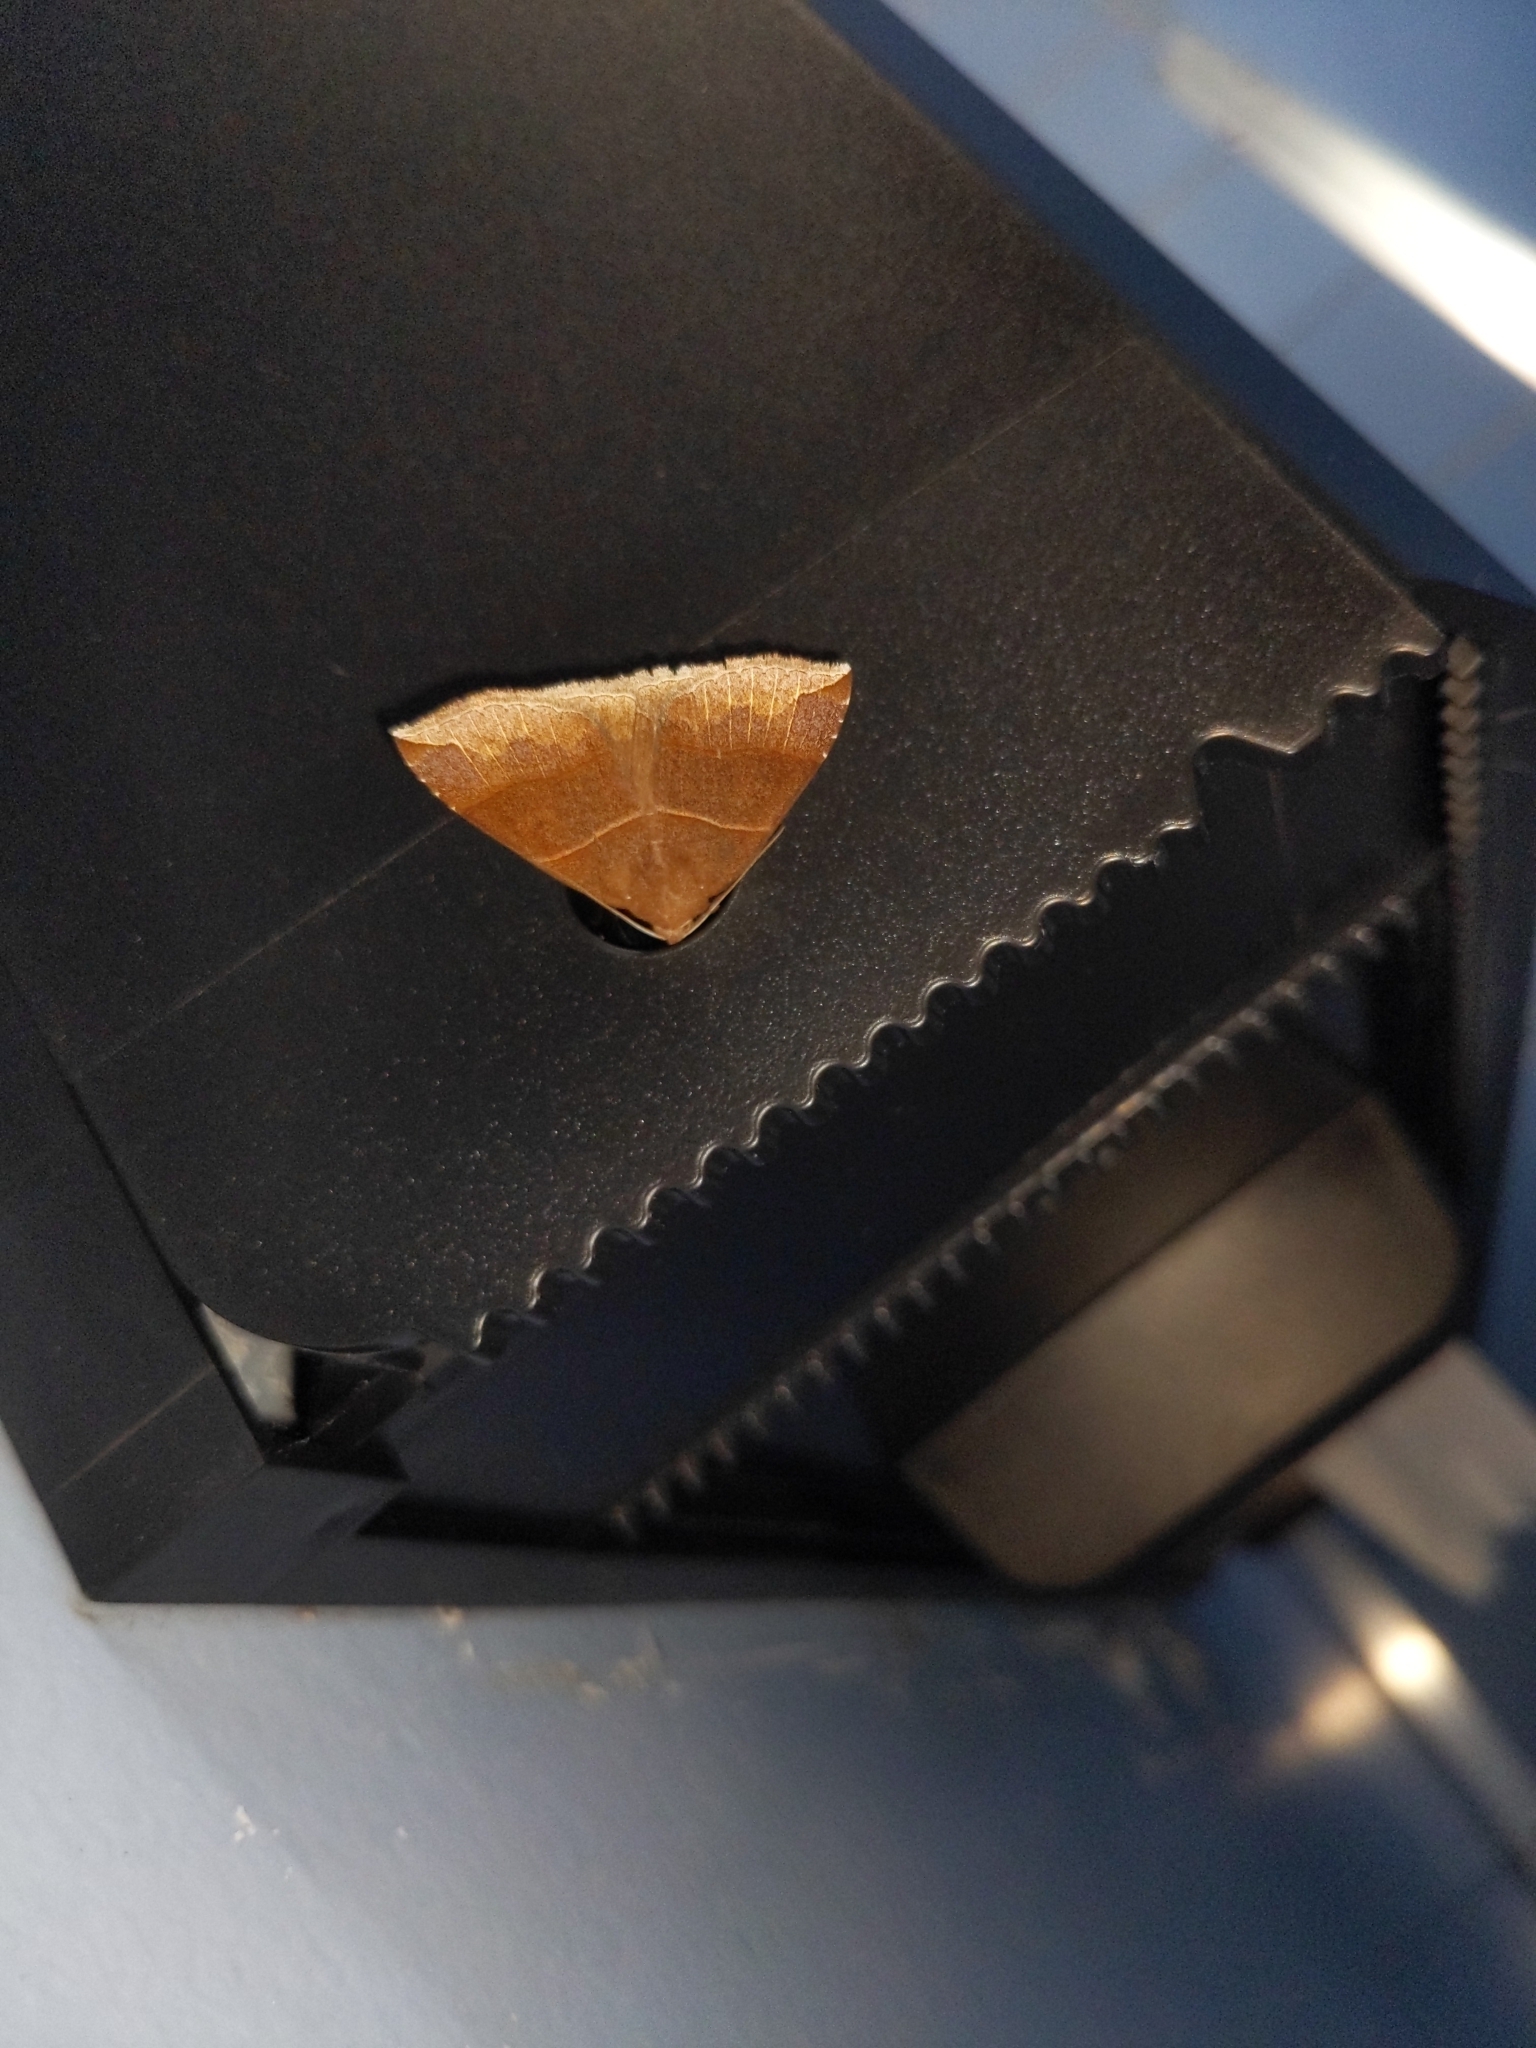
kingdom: Animalia
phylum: Arthropoda
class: Insecta
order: Lepidoptera
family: Erebidae
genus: Parallelia
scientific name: Parallelia bistriaris
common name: Maple looper moth
